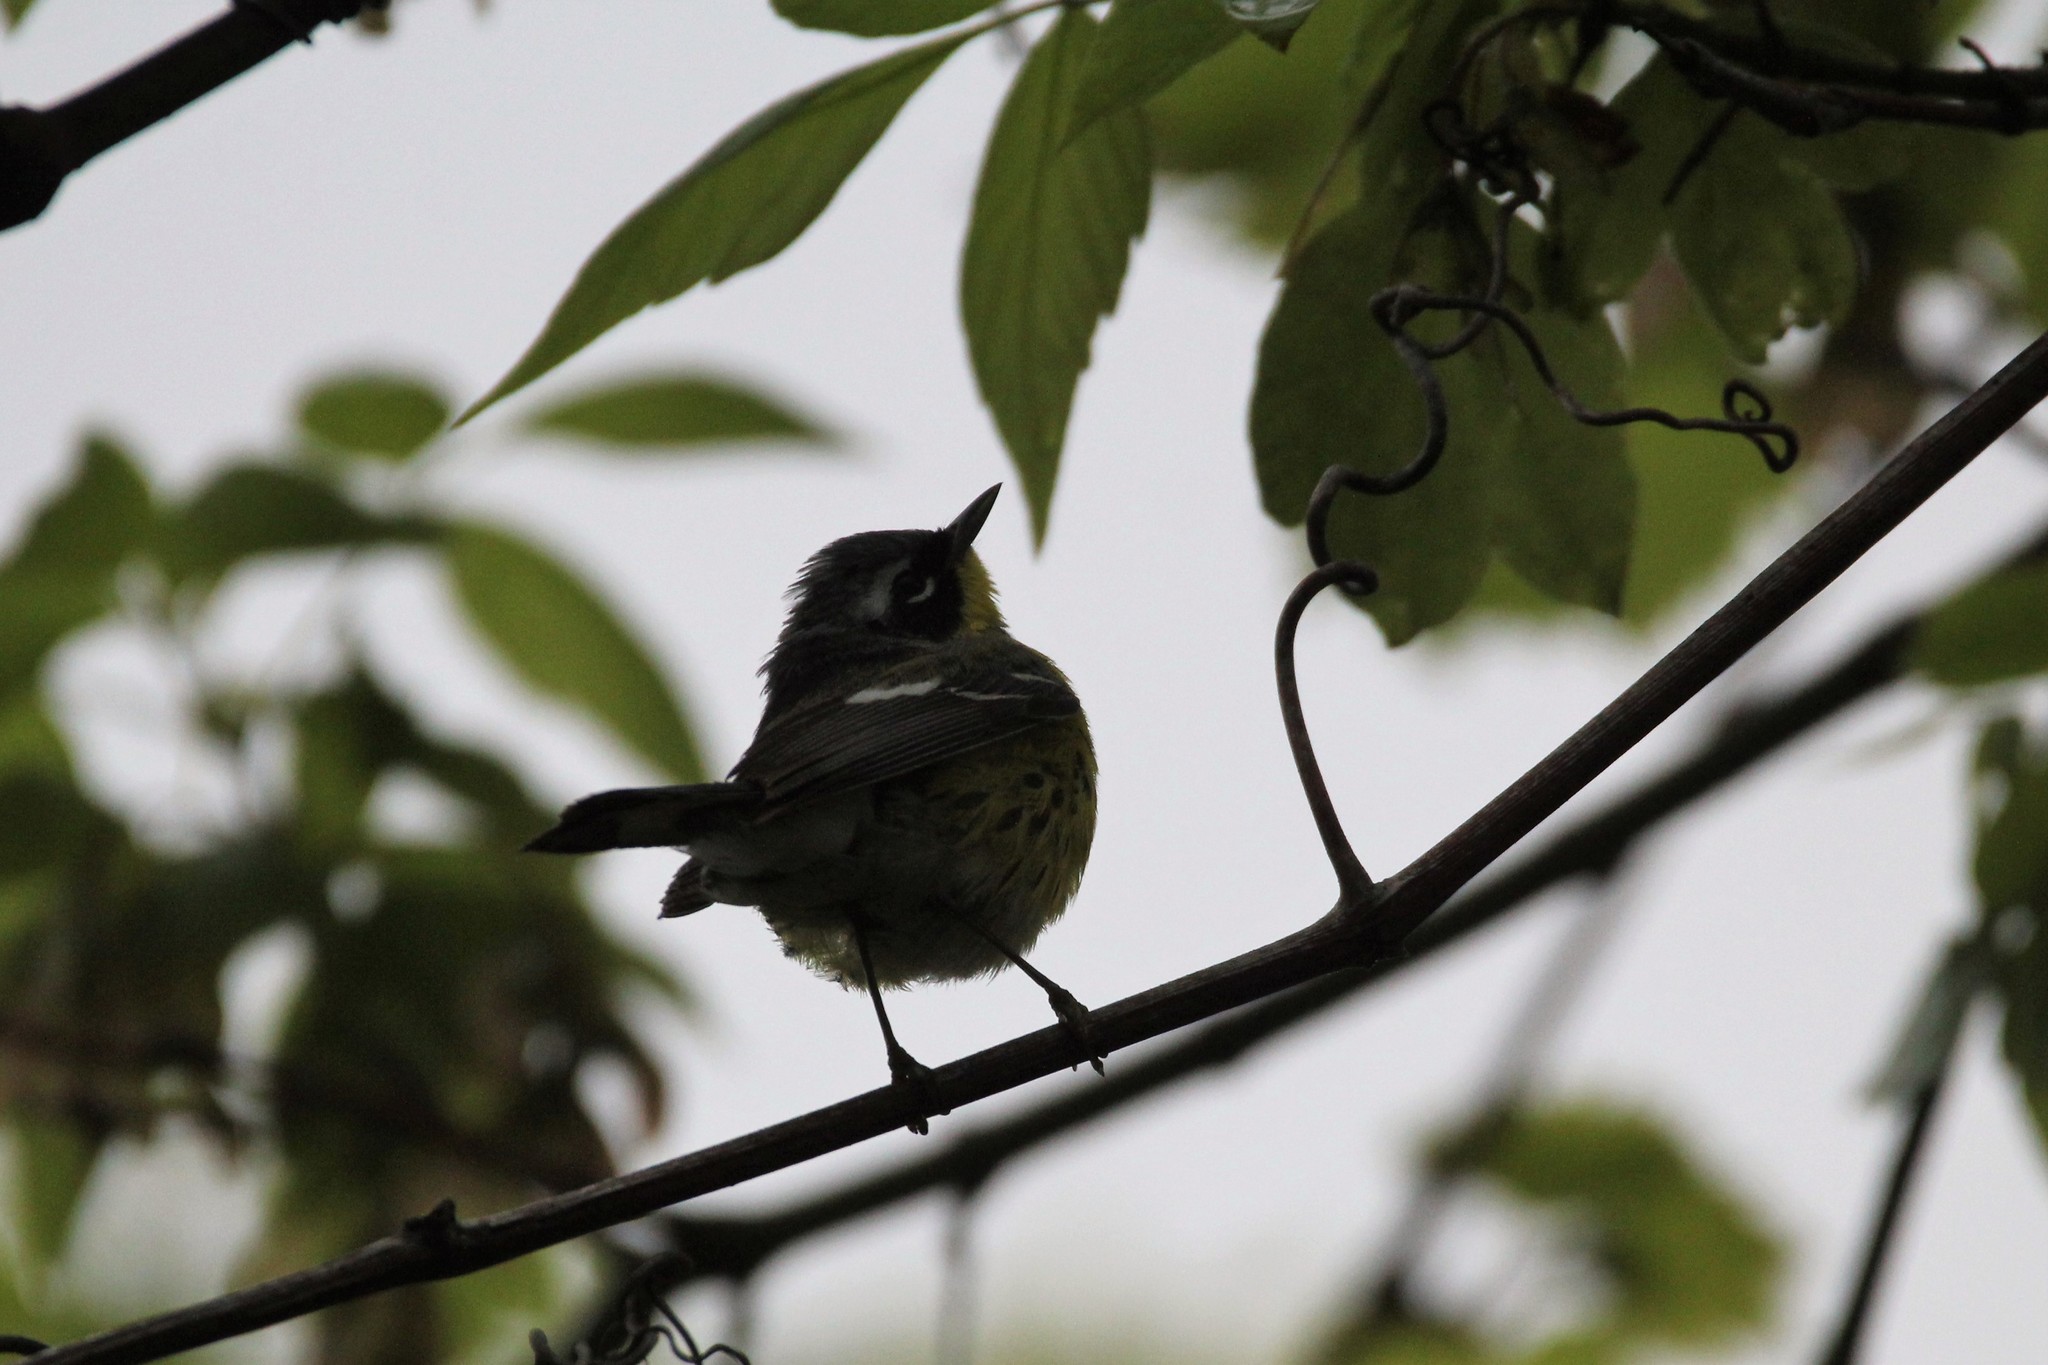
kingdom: Animalia
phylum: Chordata
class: Aves
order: Passeriformes
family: Parulidae
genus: Setophaga
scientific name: Setophaga magnolia
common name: Magnolia warbler
